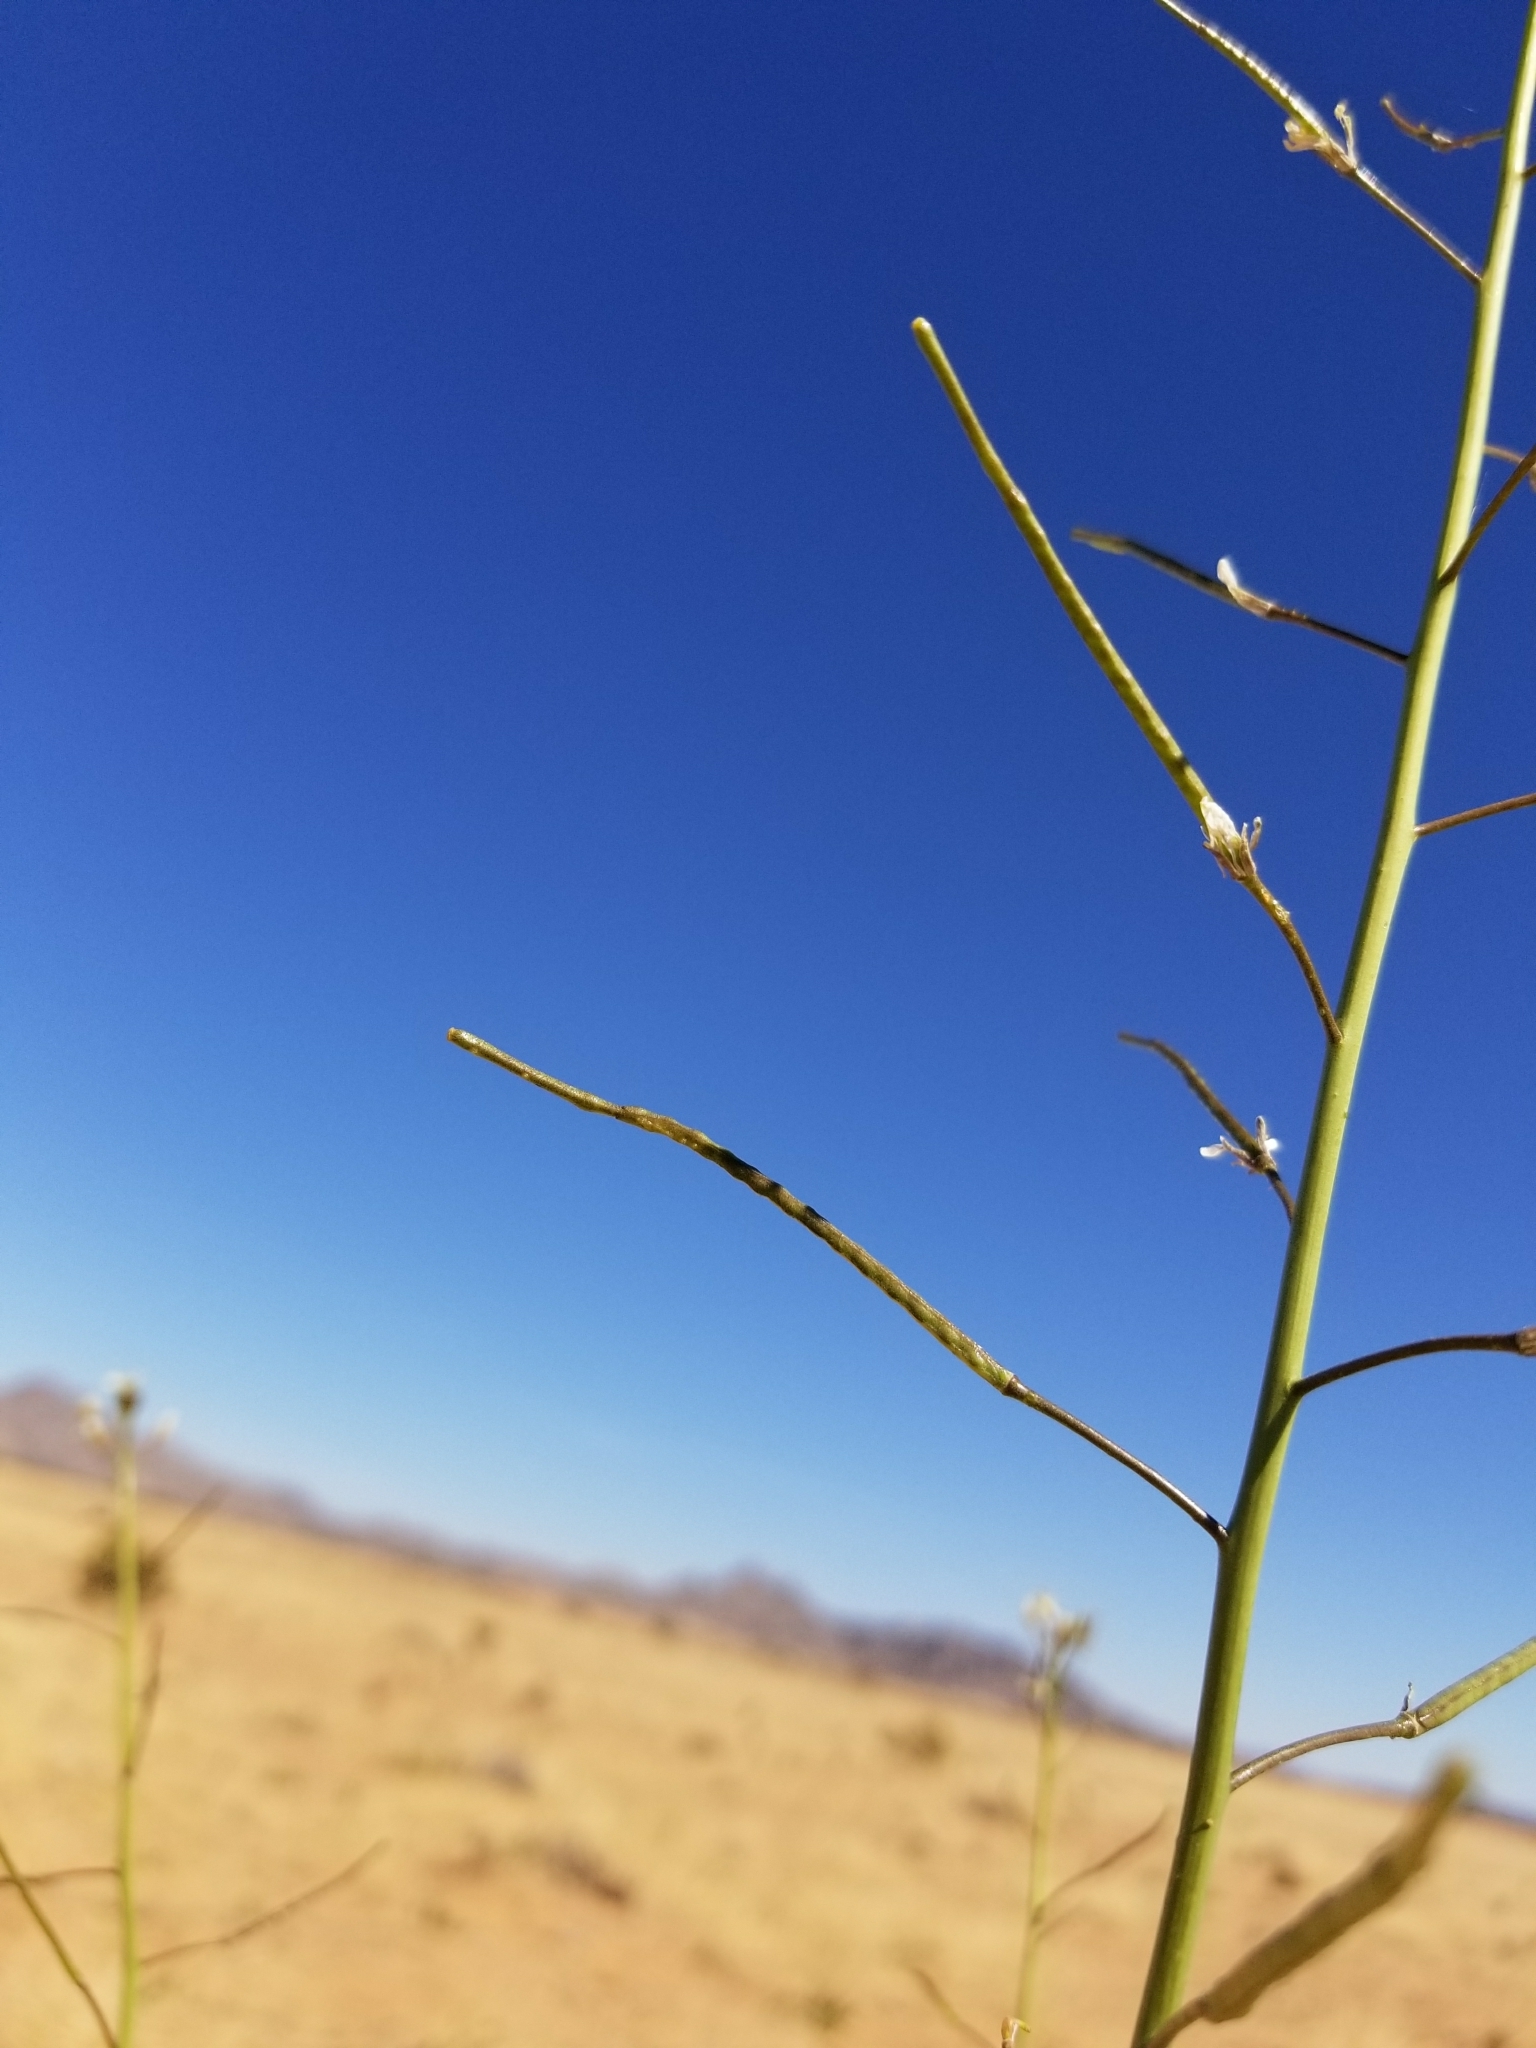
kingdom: Plantae
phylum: Tracheophyta
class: Magnoliopsida
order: Brassicales
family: Brassicaceae
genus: Brassica
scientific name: Brassica tournefortii
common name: Pale cabbage
